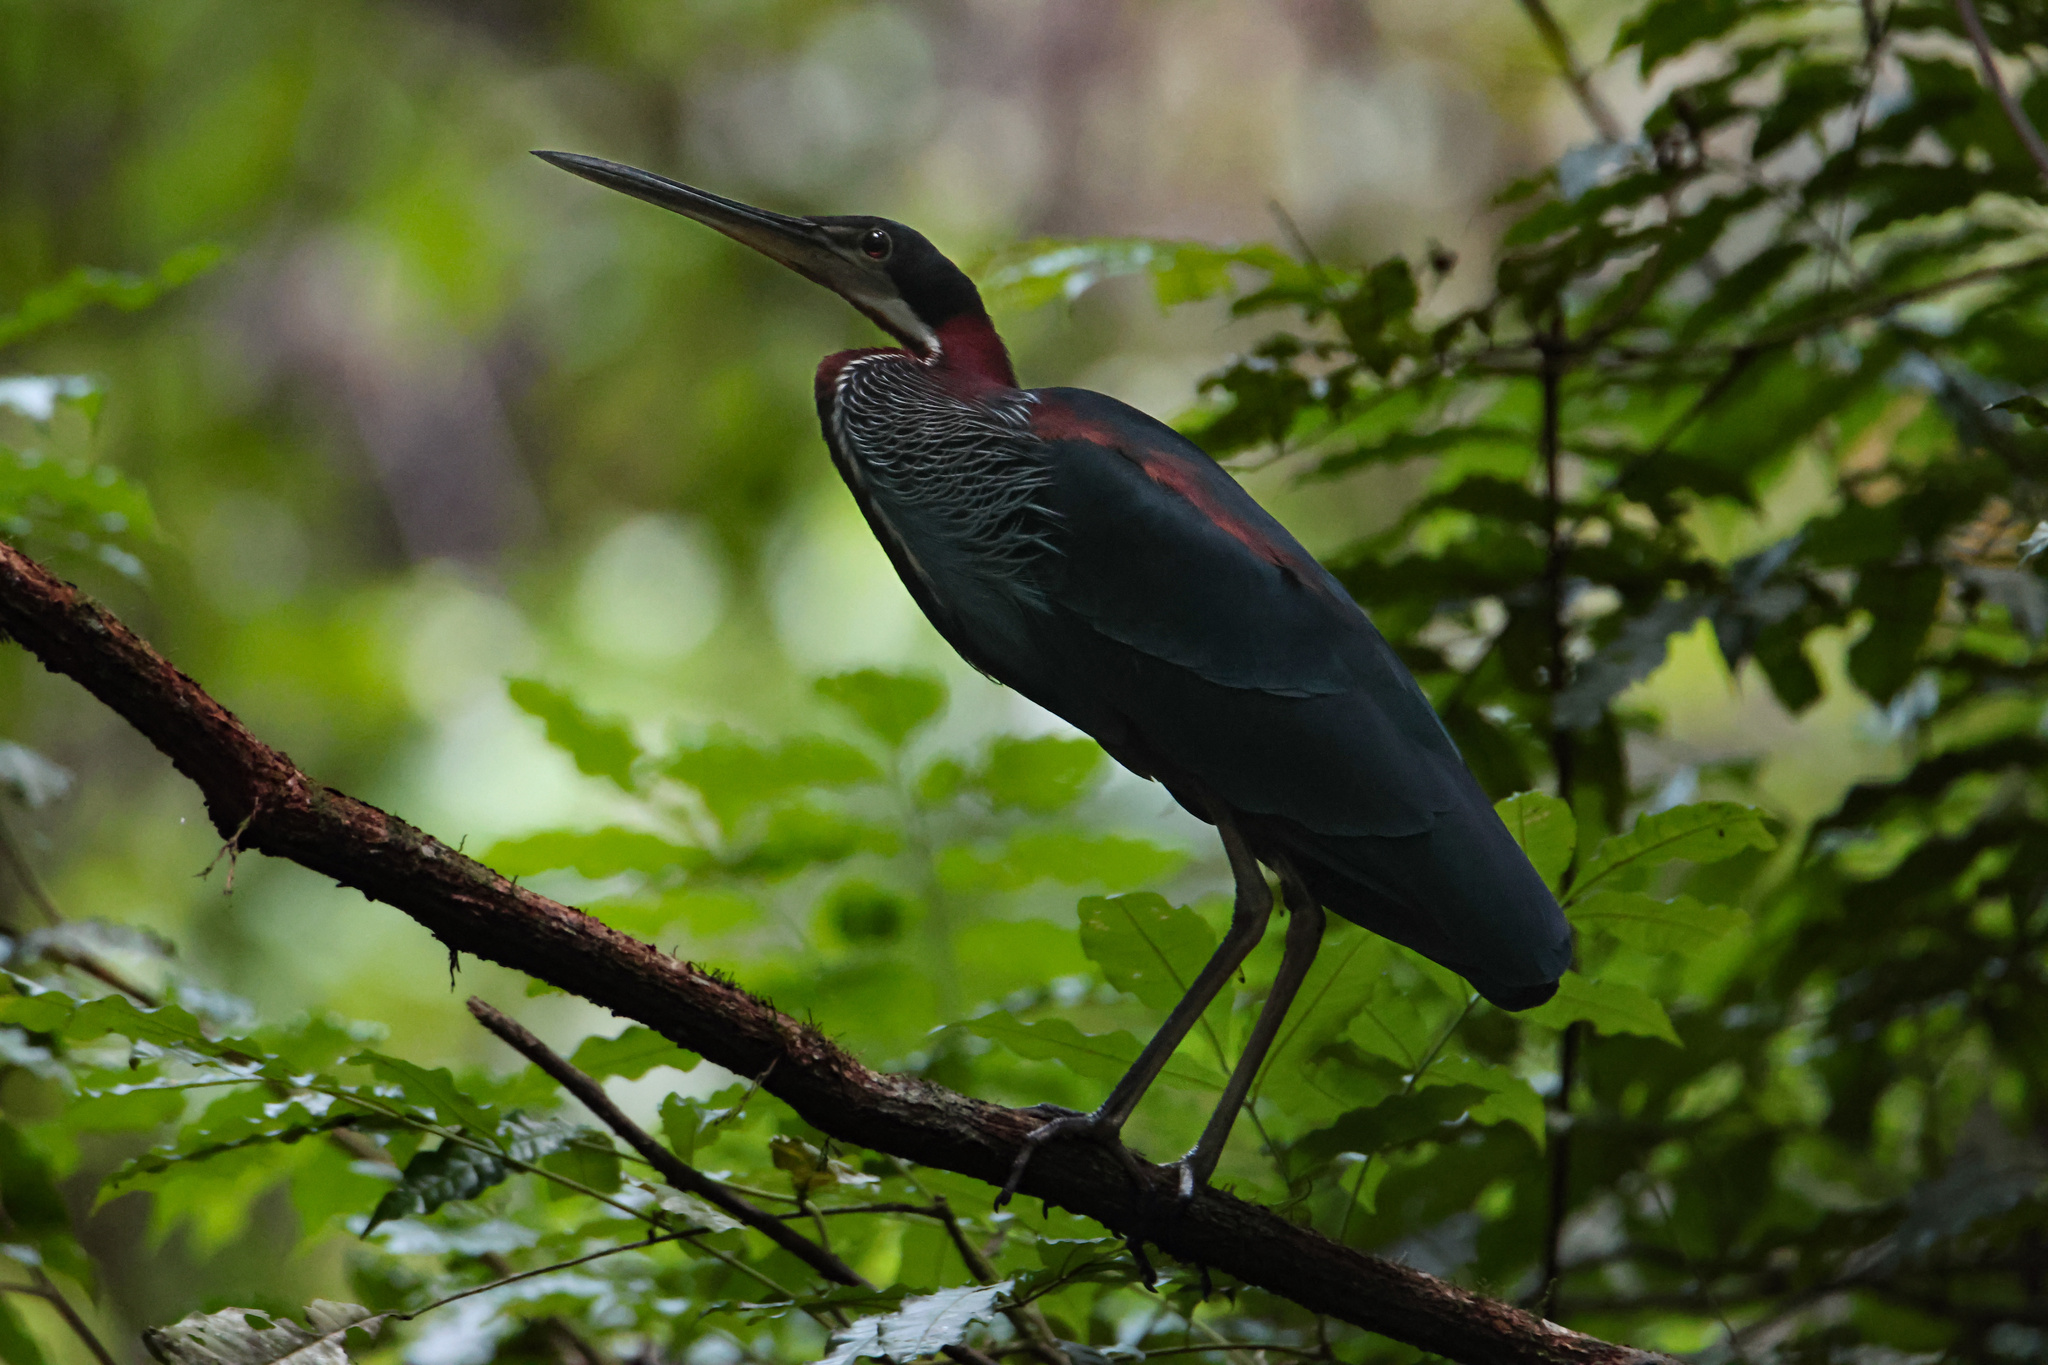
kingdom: Animalia
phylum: Chordata
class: Aves
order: Pelecaniformes
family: Ardeidae
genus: Agamia
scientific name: Agamia agami
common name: Agami heron
